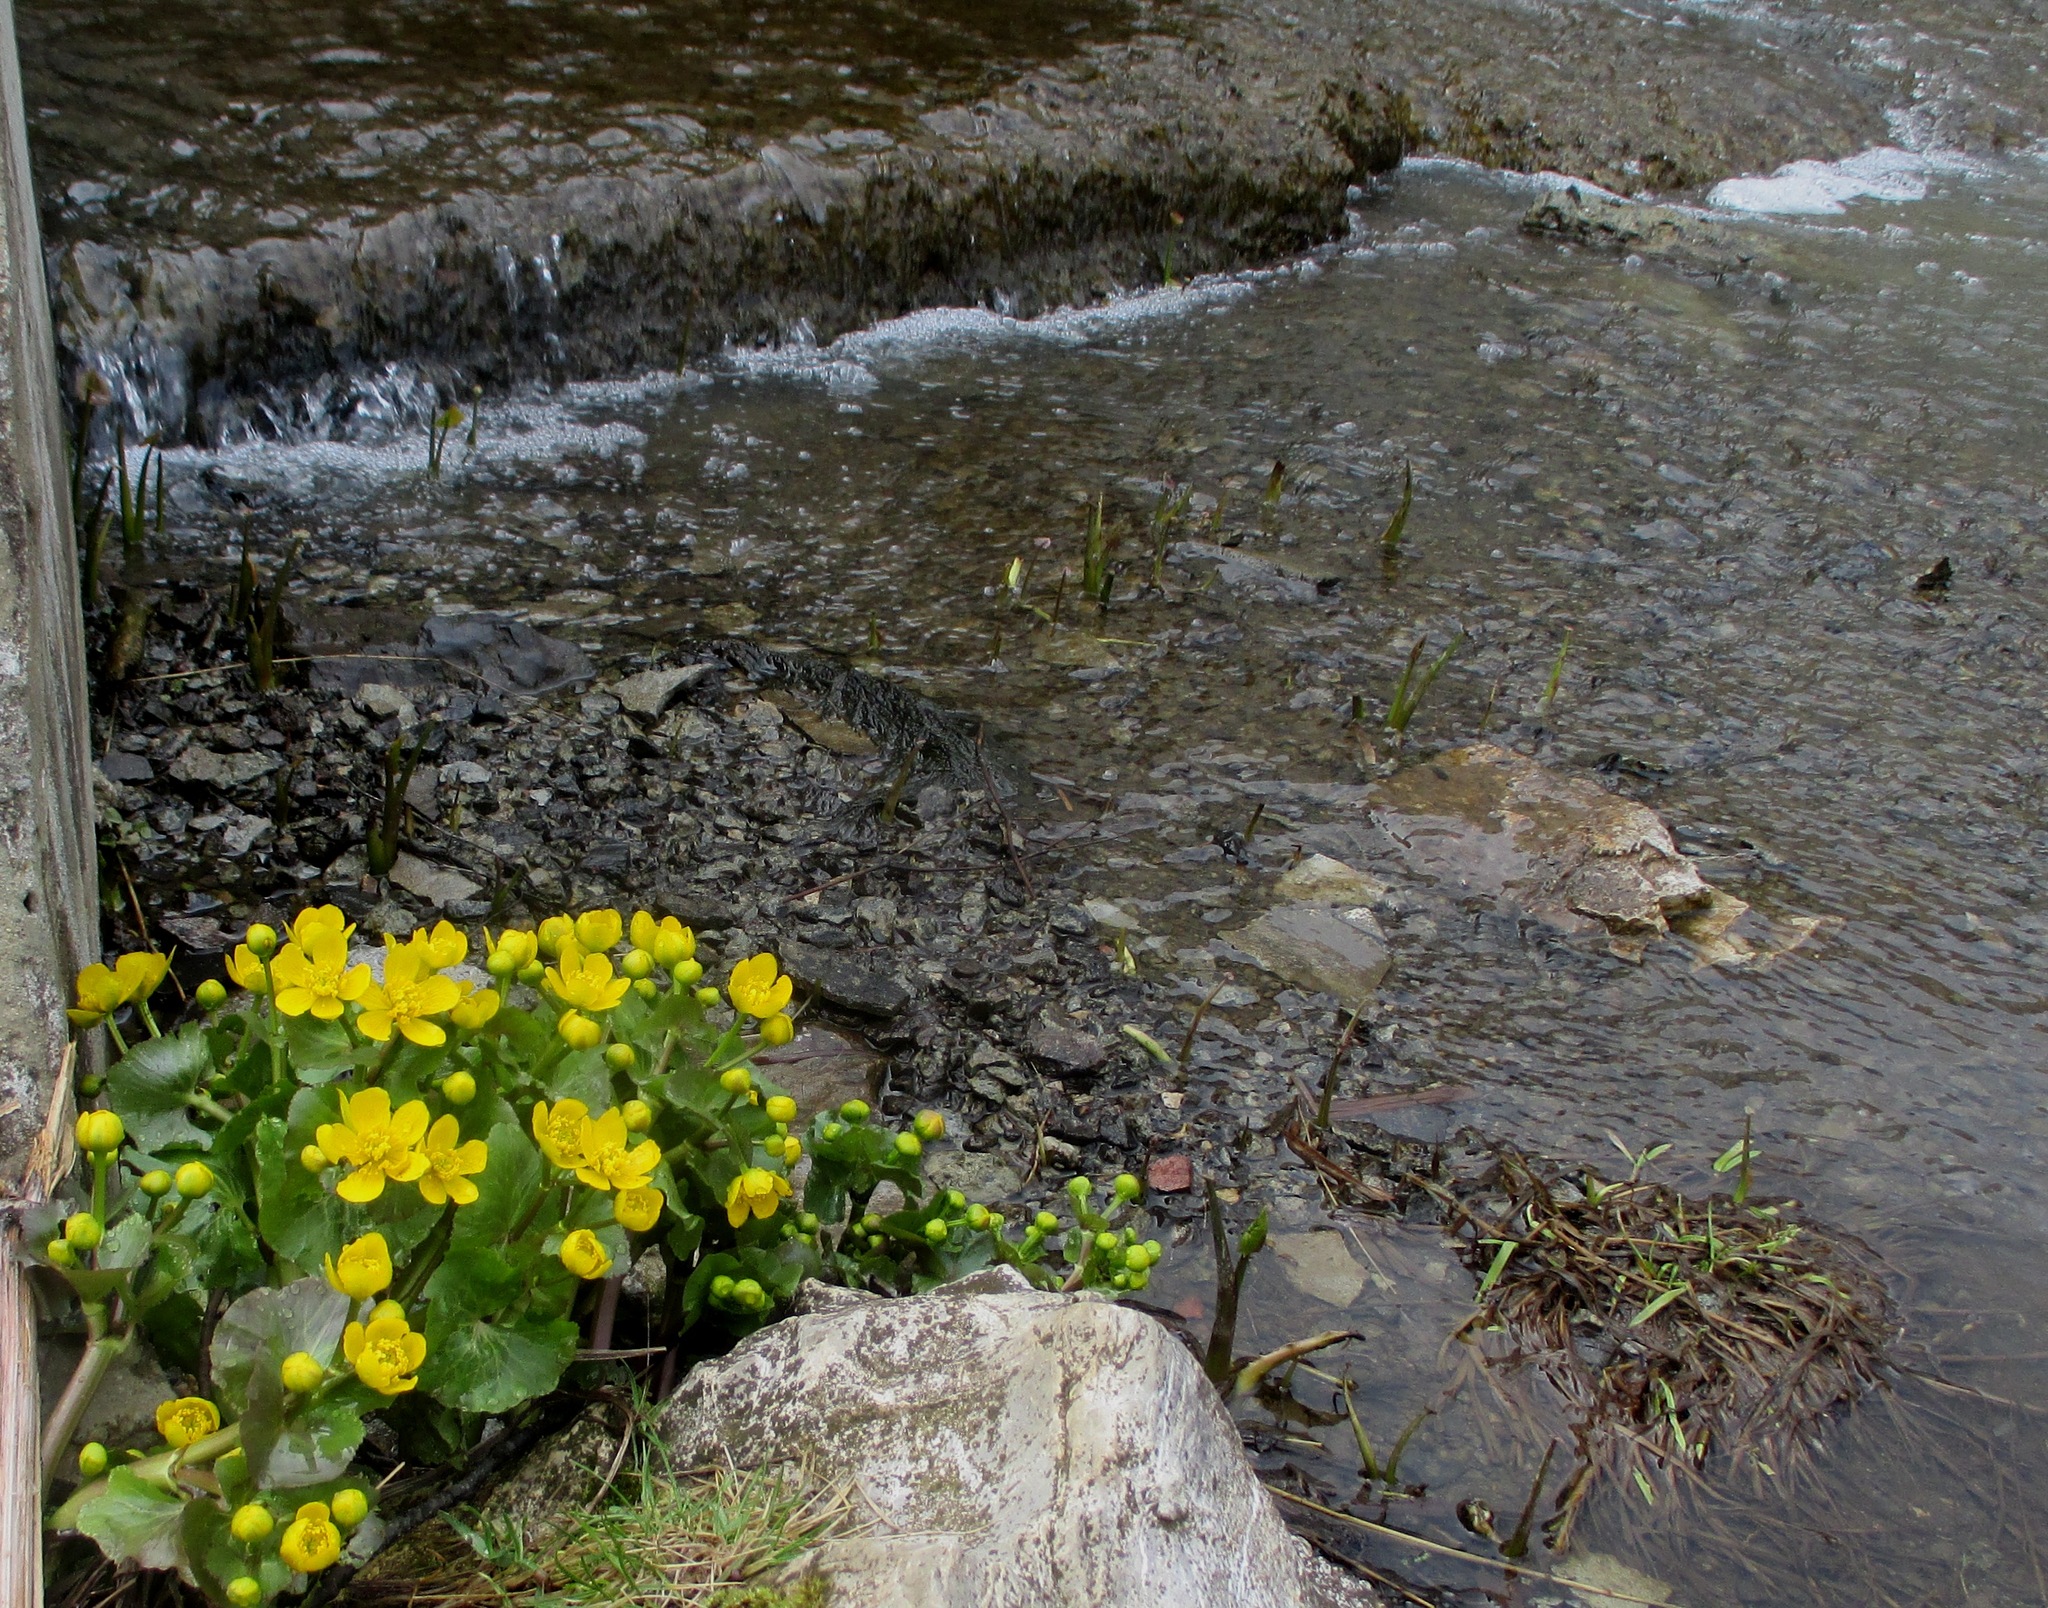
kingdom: Plantae
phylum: Tracheophyta
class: Magnoliopsida
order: Ranunculales
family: Ranunculaceae
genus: Caltha
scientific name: Caltha palustris
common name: Marsh marigold
